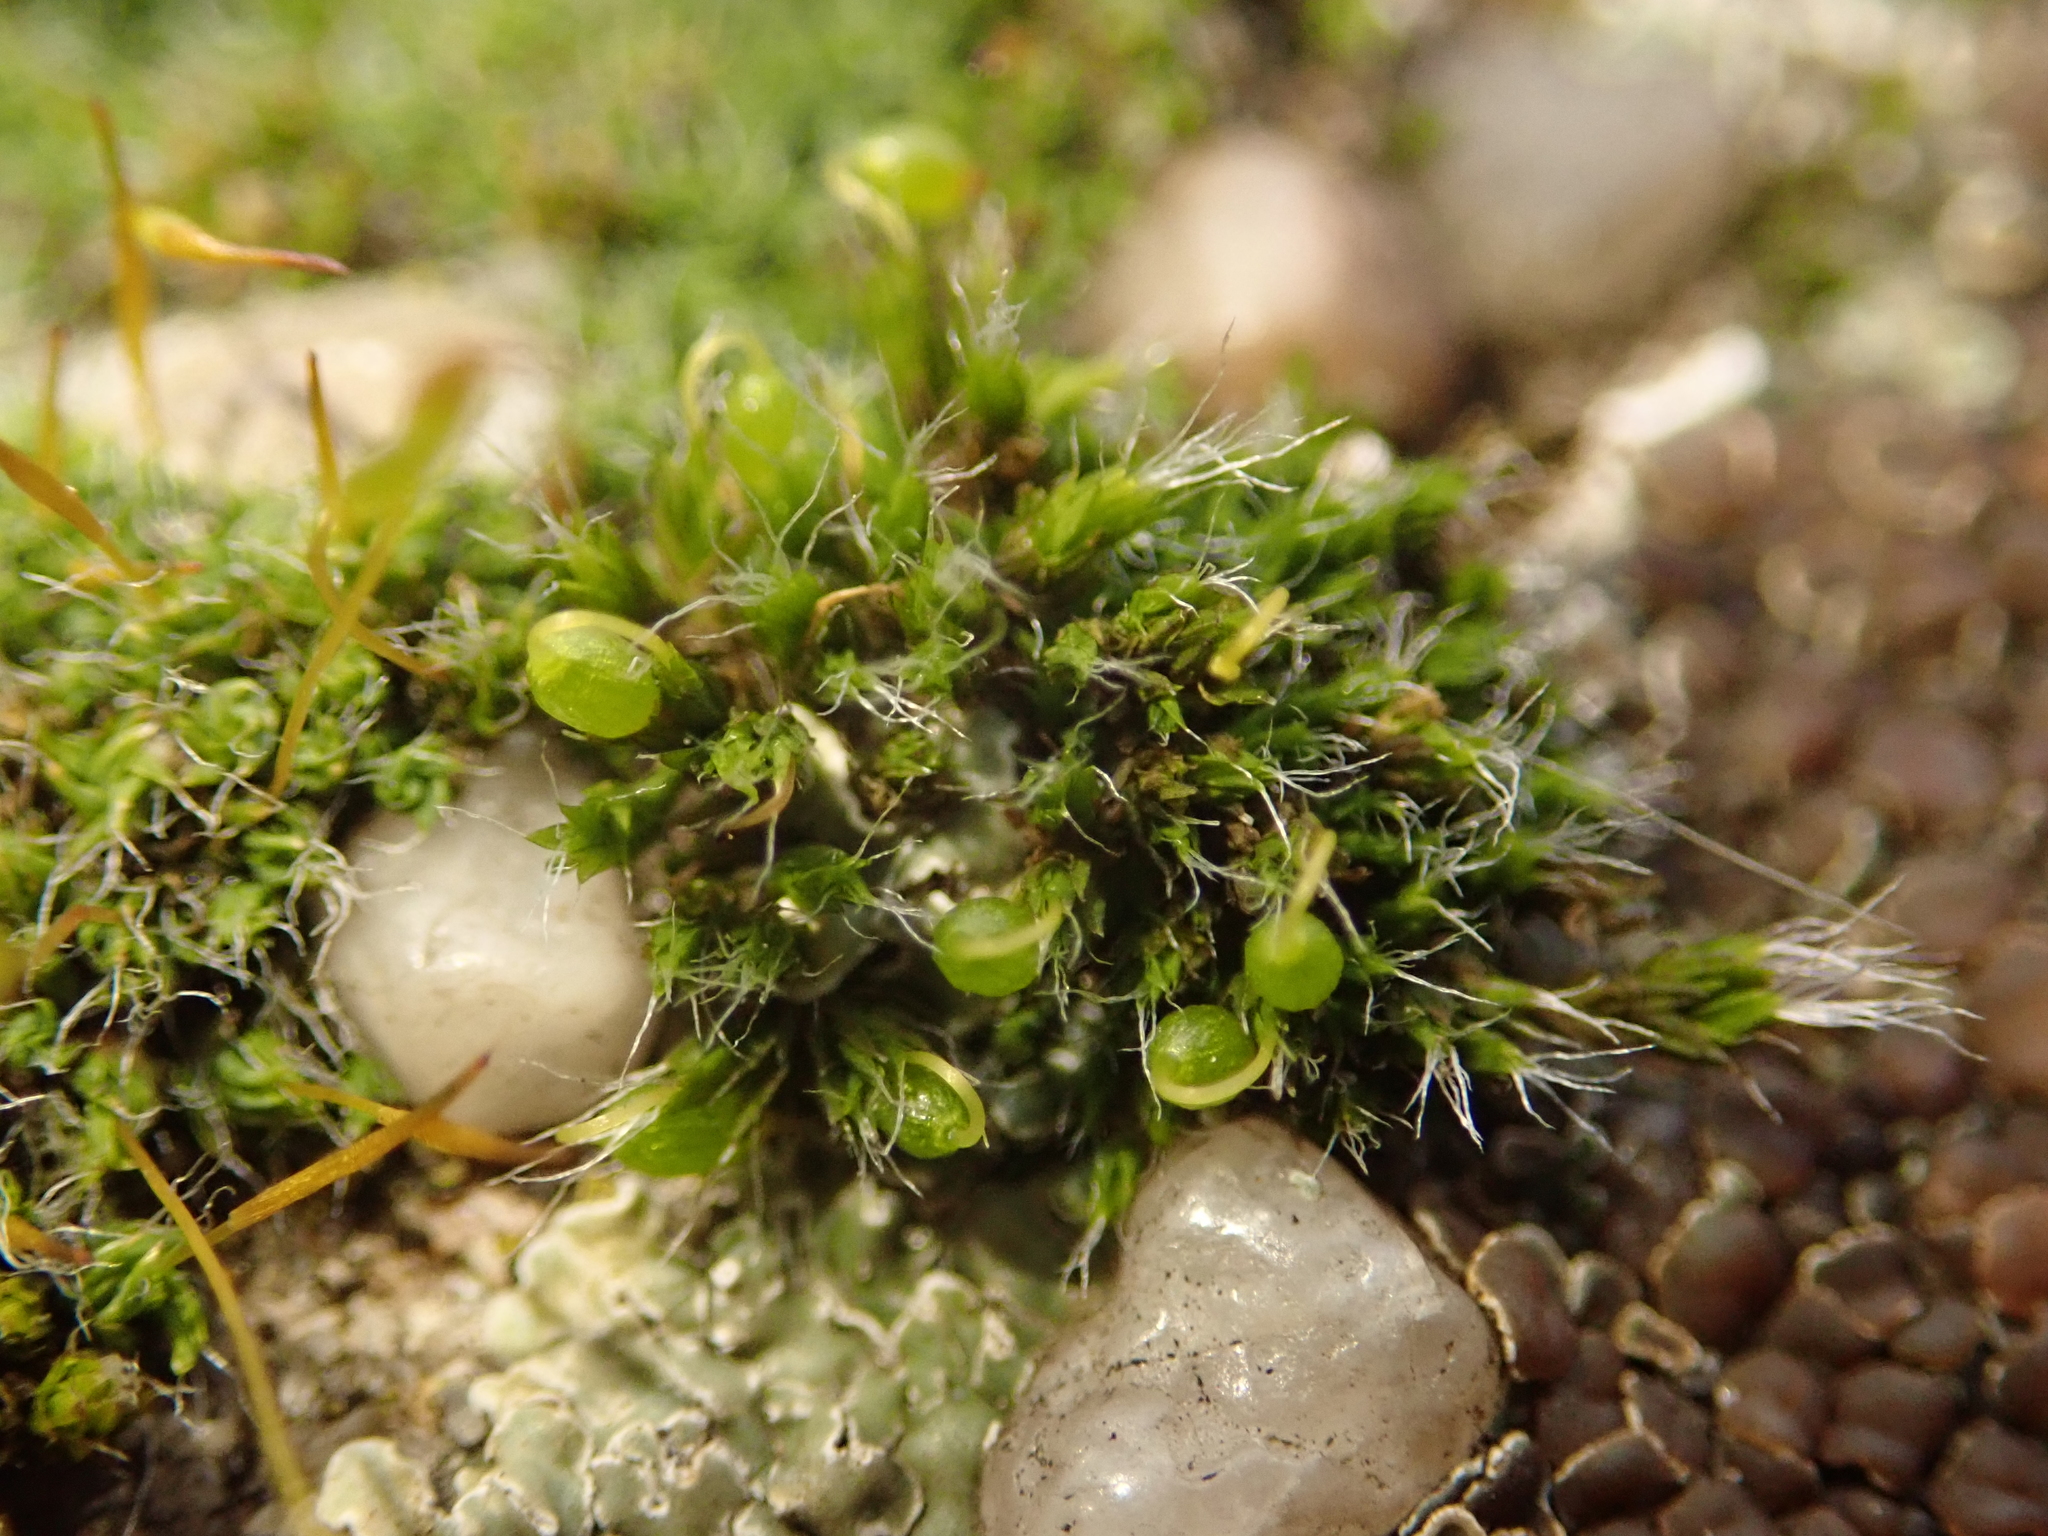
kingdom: Plantae
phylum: Bryophyta
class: Bryopsida
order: Grimmiales
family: Grimmiaceae
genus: Grimmia
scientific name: Grimmia pulvinata
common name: Grey-cushioned grimmia
